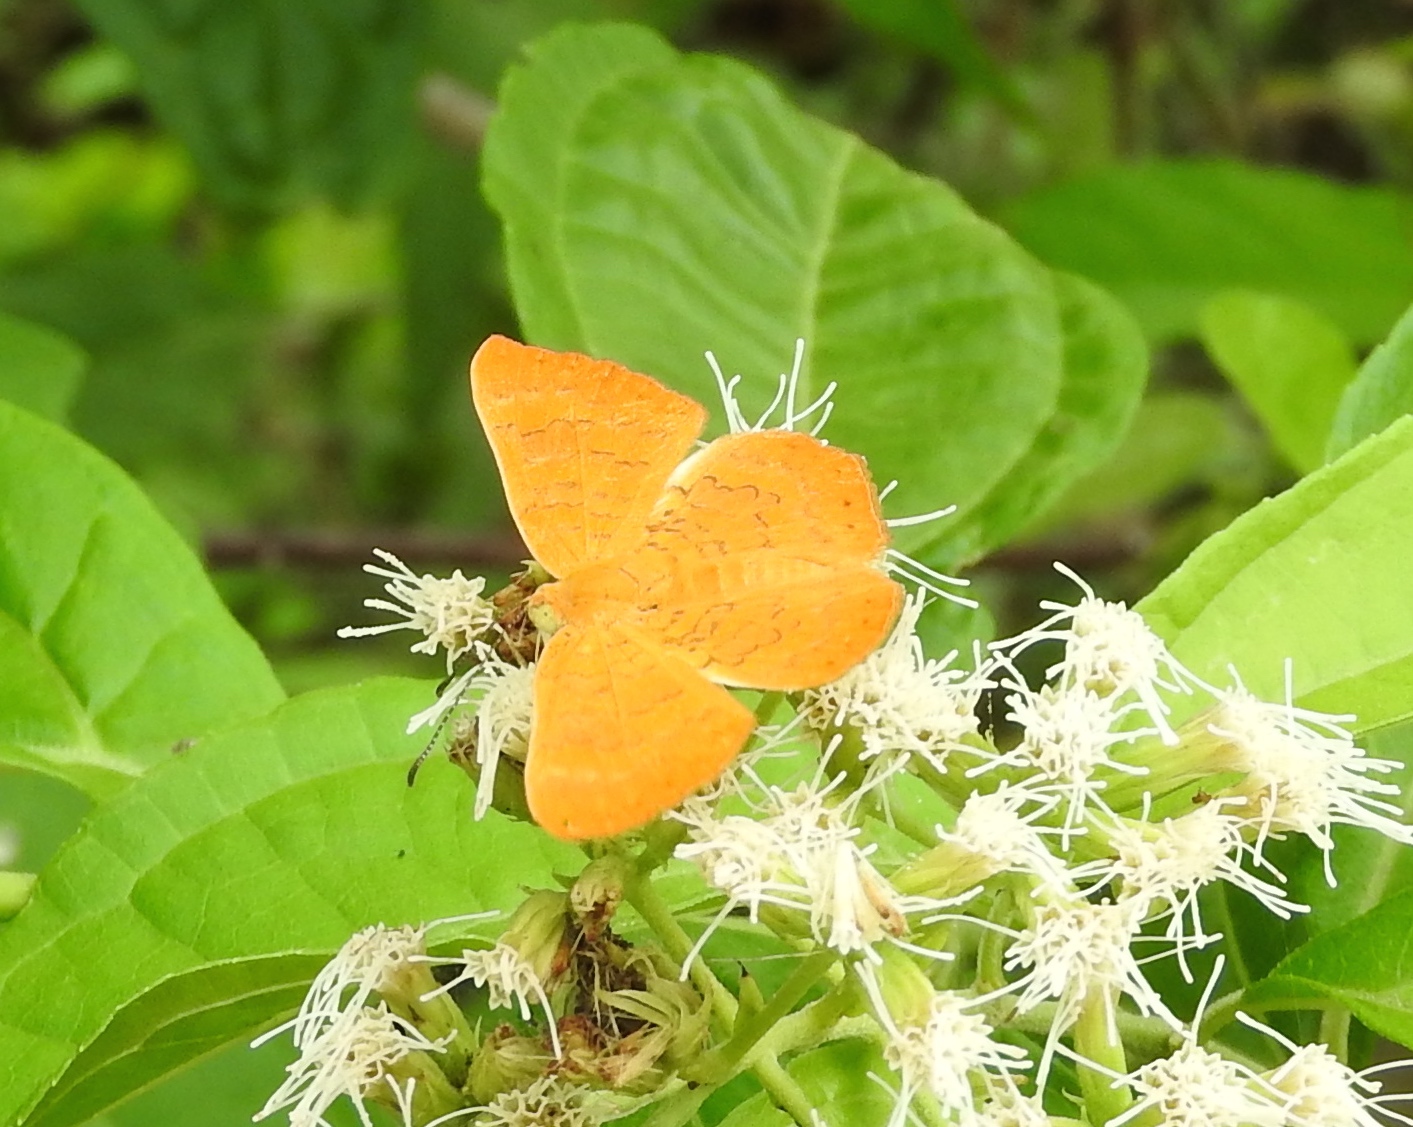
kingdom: Animalia
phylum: Arthropoda
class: Insecta
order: Lepidoptera
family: Lycaenidae
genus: Emesis
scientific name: Emesis
